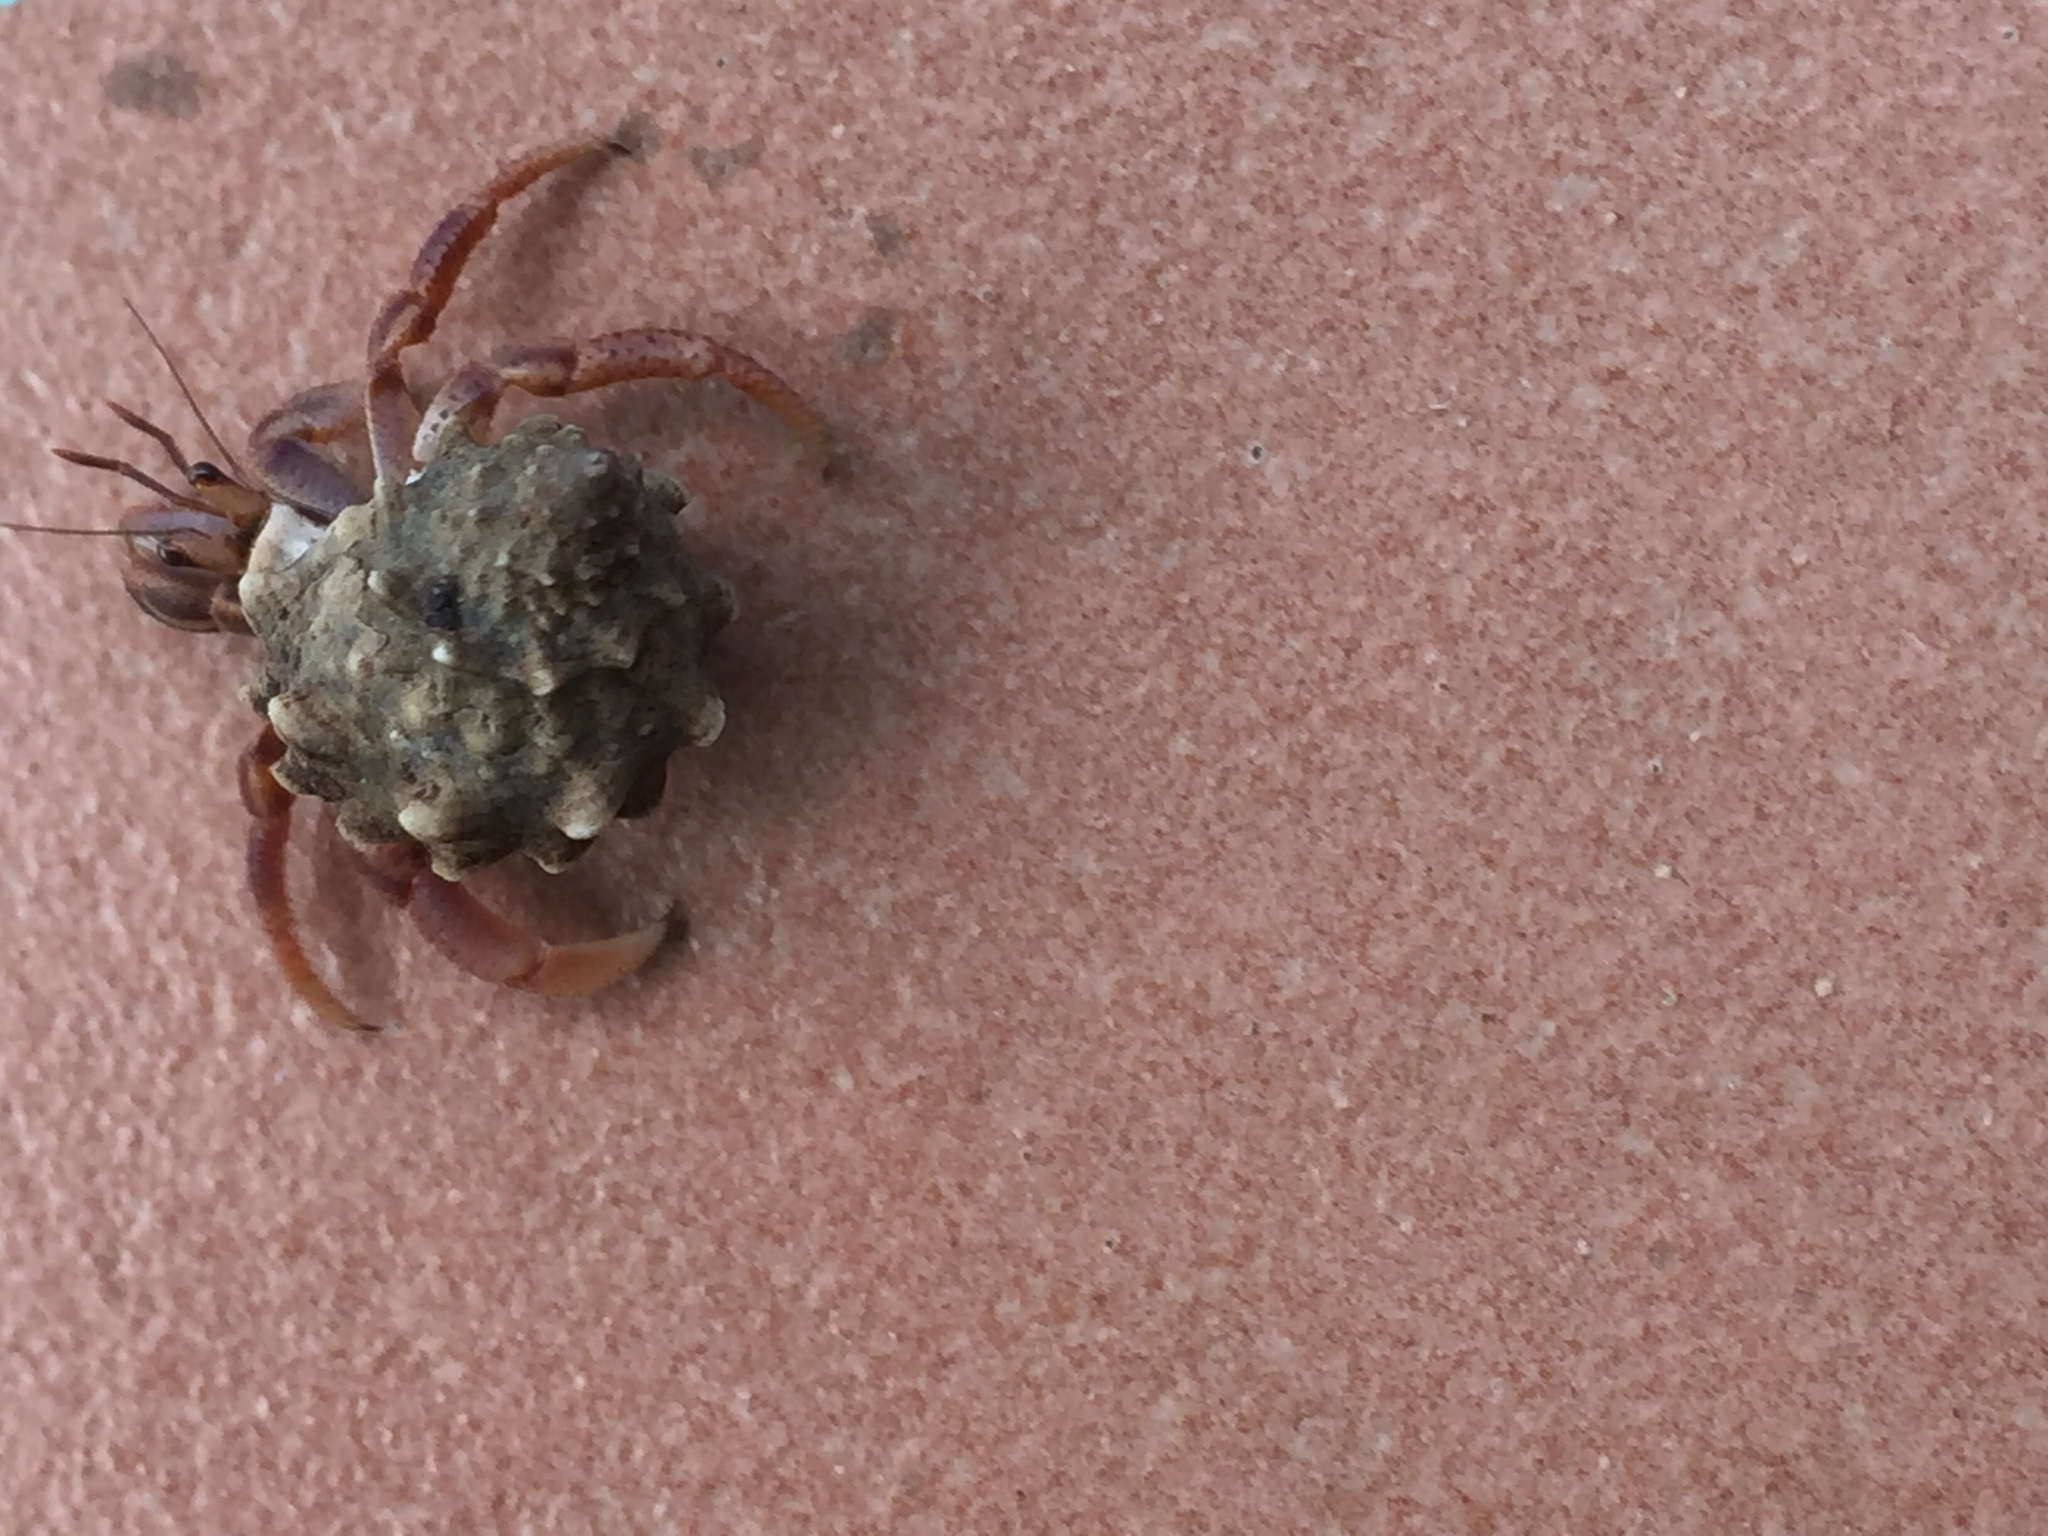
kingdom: Animalia
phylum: Arthropoda
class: Malacostraca
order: Decapoda
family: Coenobitidae
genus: Coenobita
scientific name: Coenobita clypeatus
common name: Caribbean hermit crab
